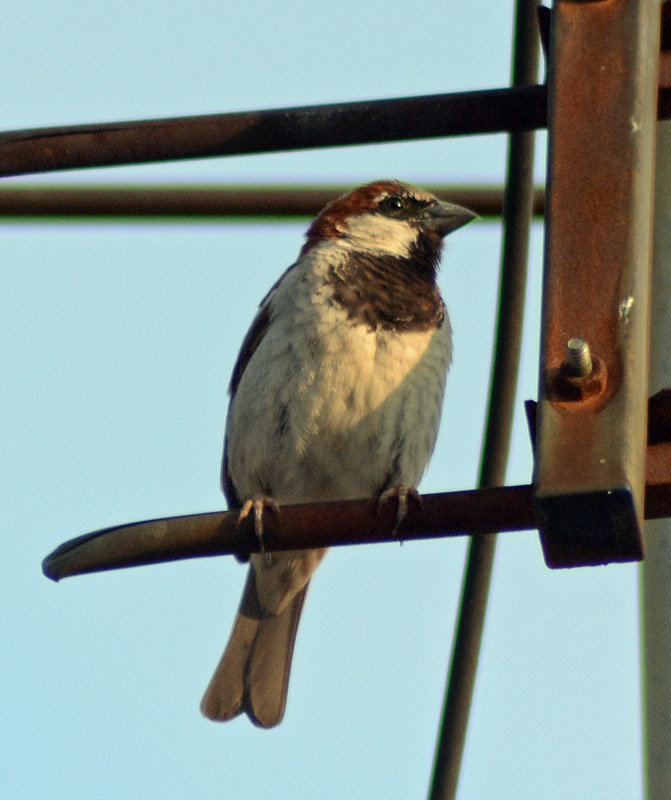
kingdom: Animalia
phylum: Chordata
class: Aves
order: Passeriformes
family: Passeridae
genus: Passer
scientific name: Passer domesticus
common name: House sparrow
